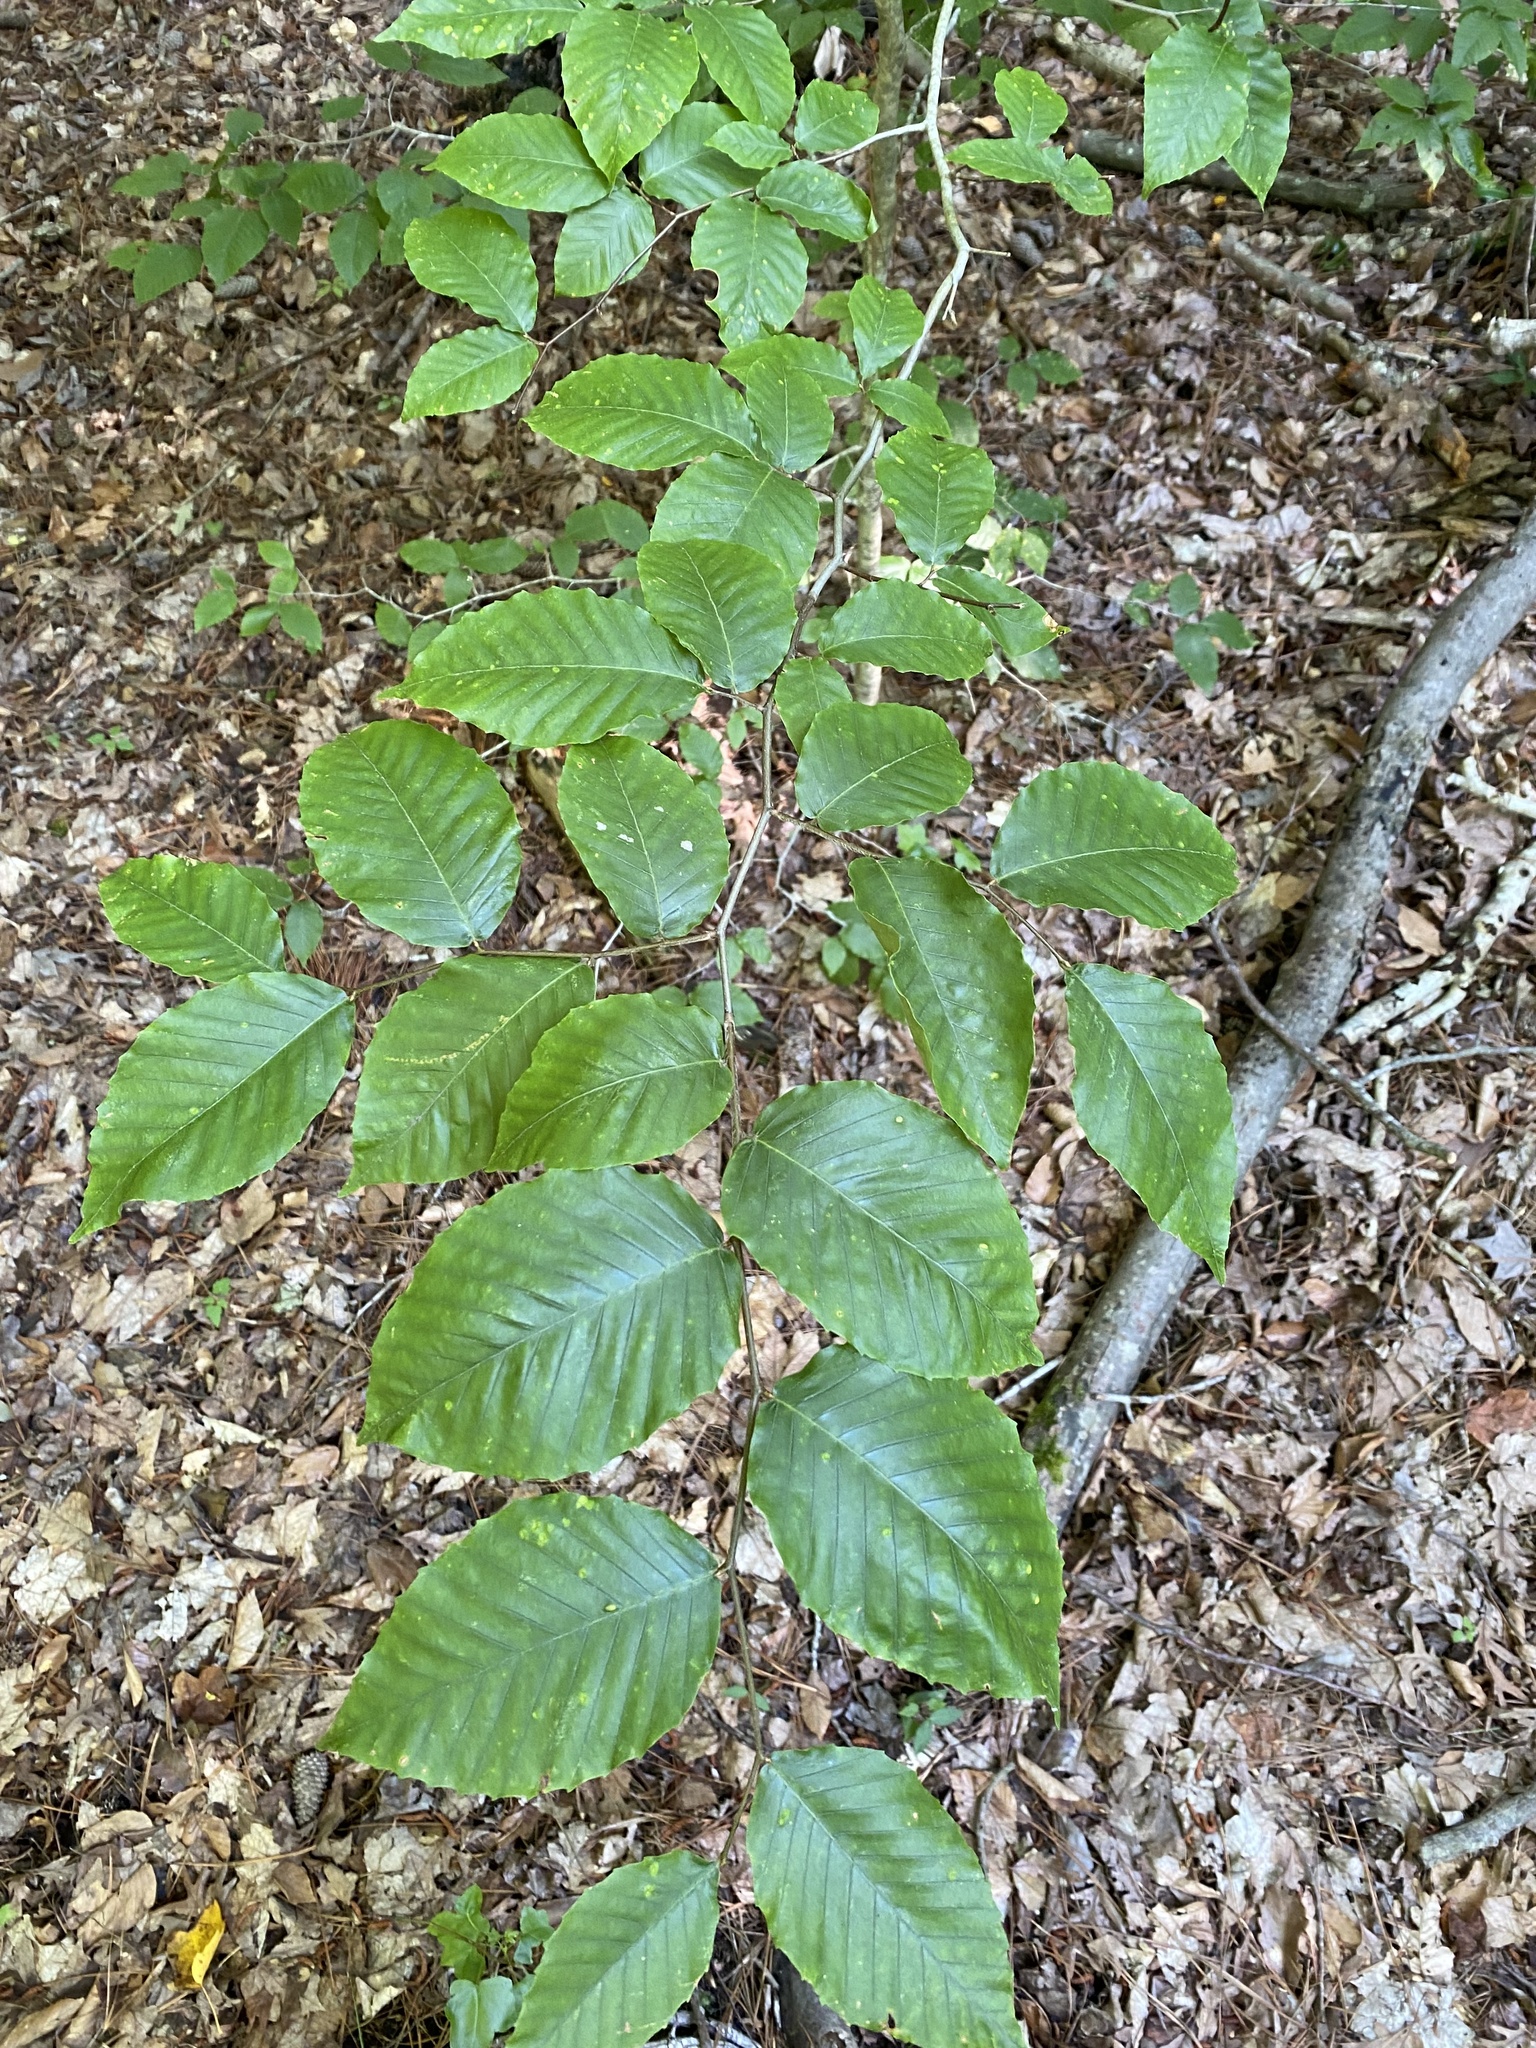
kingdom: Plantae
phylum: Tracheophyta
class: Magnoliopsida
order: Fagales
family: Fagaceae
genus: Fagus
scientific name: Fagus grandifolia
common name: American beech
